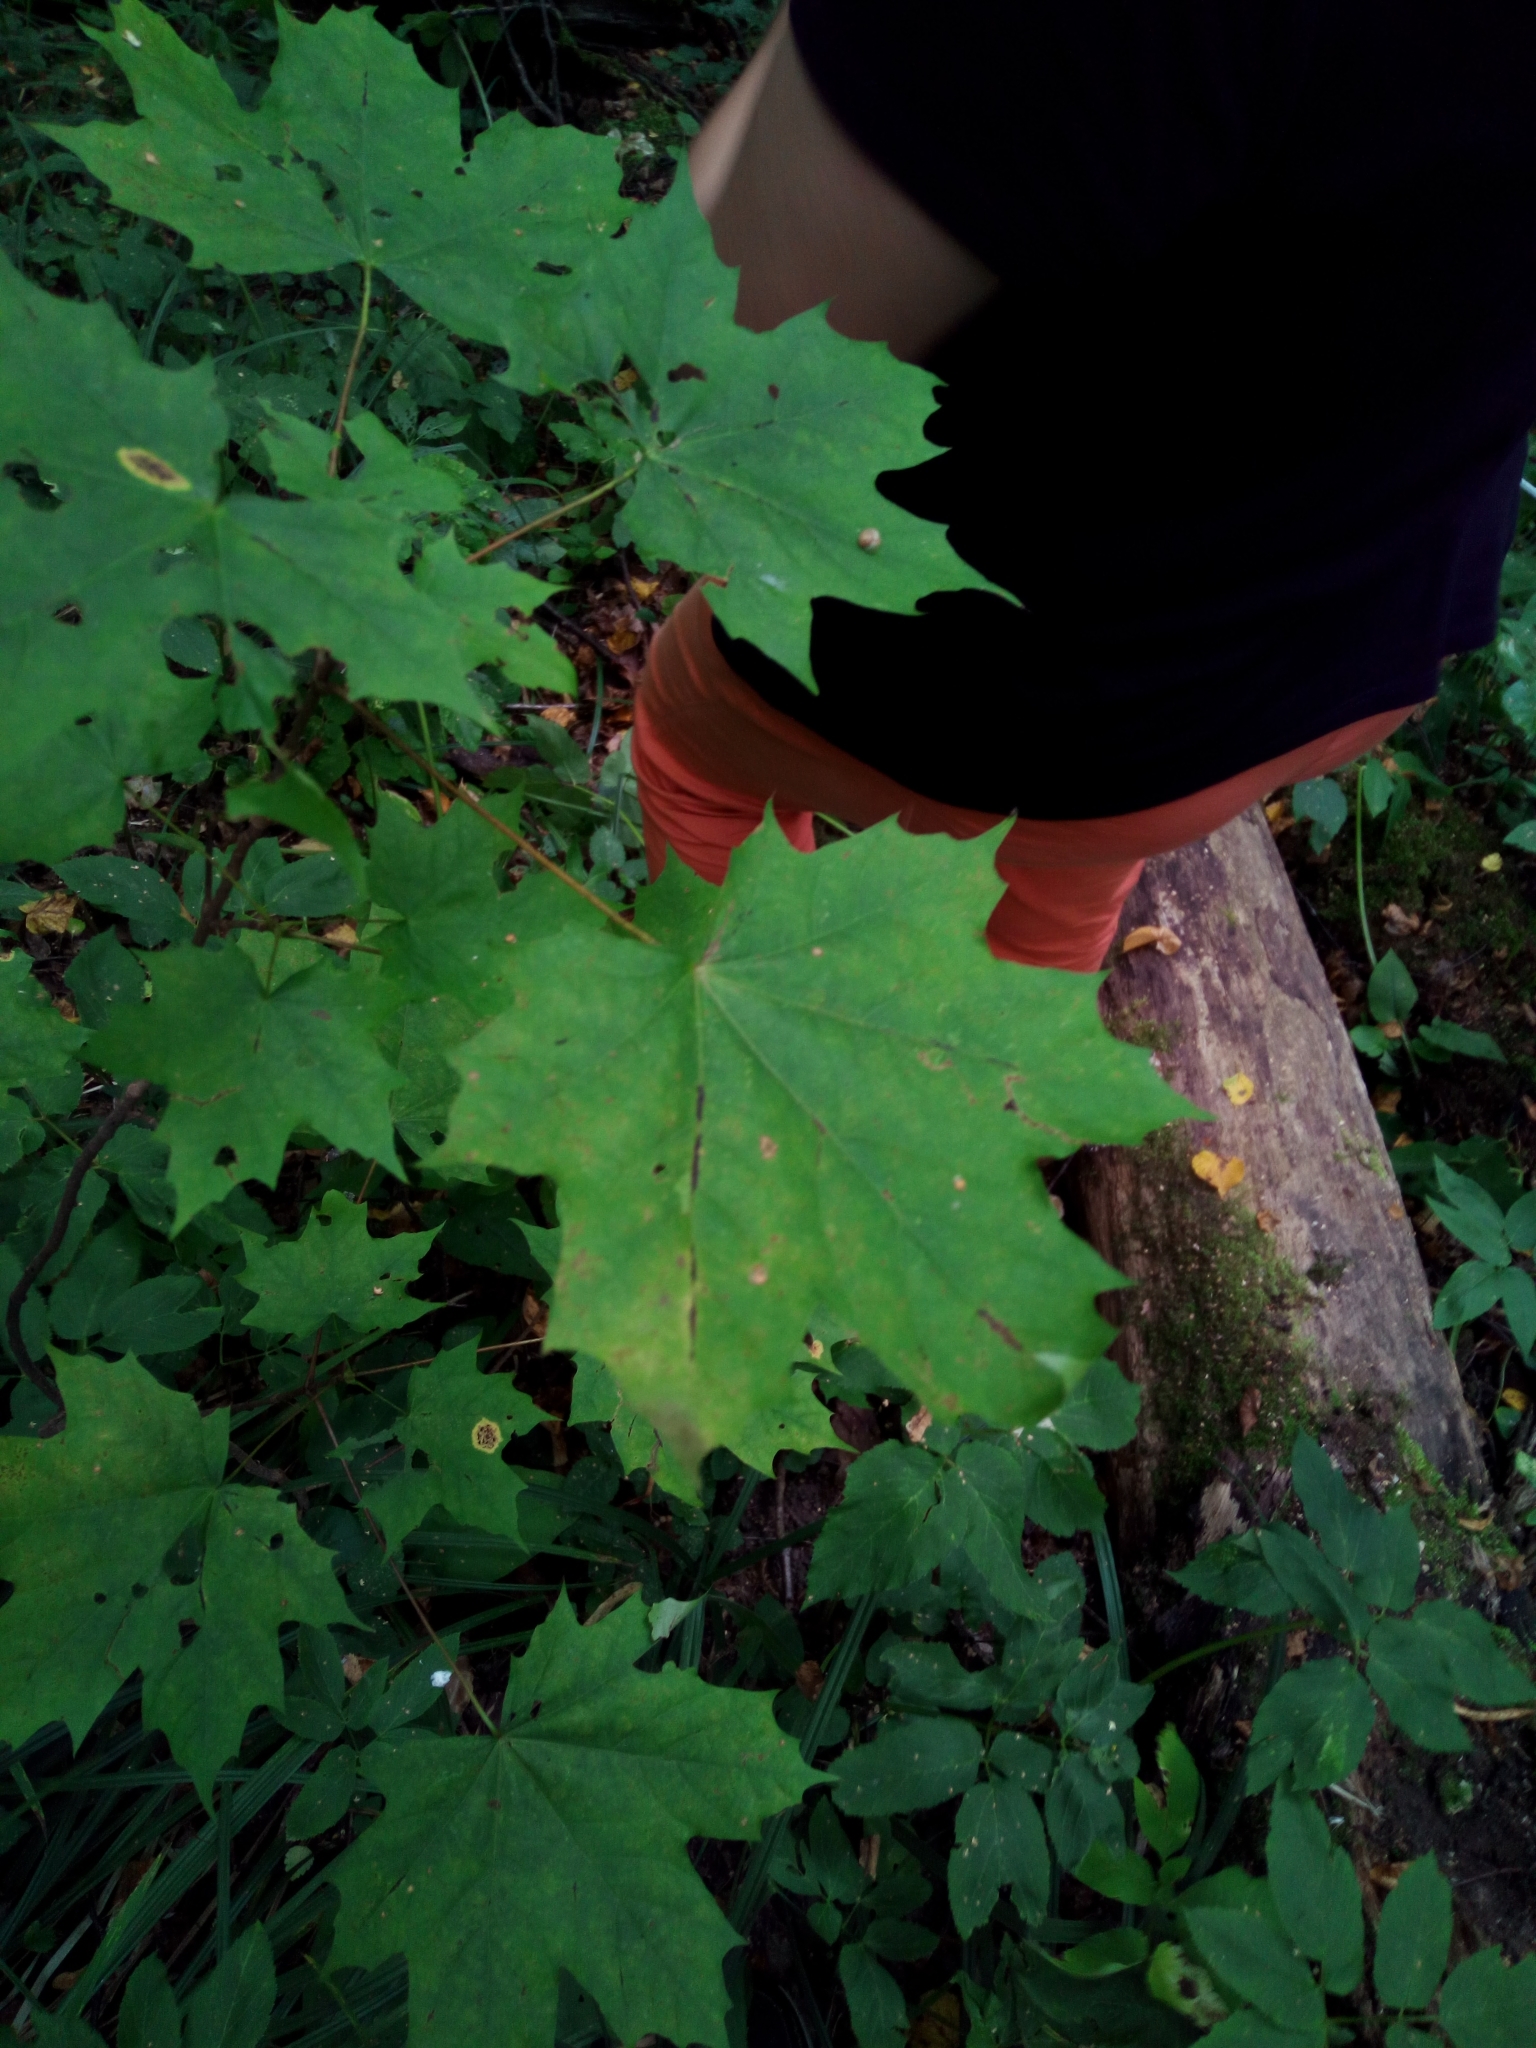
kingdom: Plantae
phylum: Tracheophyta
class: Magnoliopsida
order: Sapindales
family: Sapindaceae
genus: Acer
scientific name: Acer platanoides
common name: Norway maple
